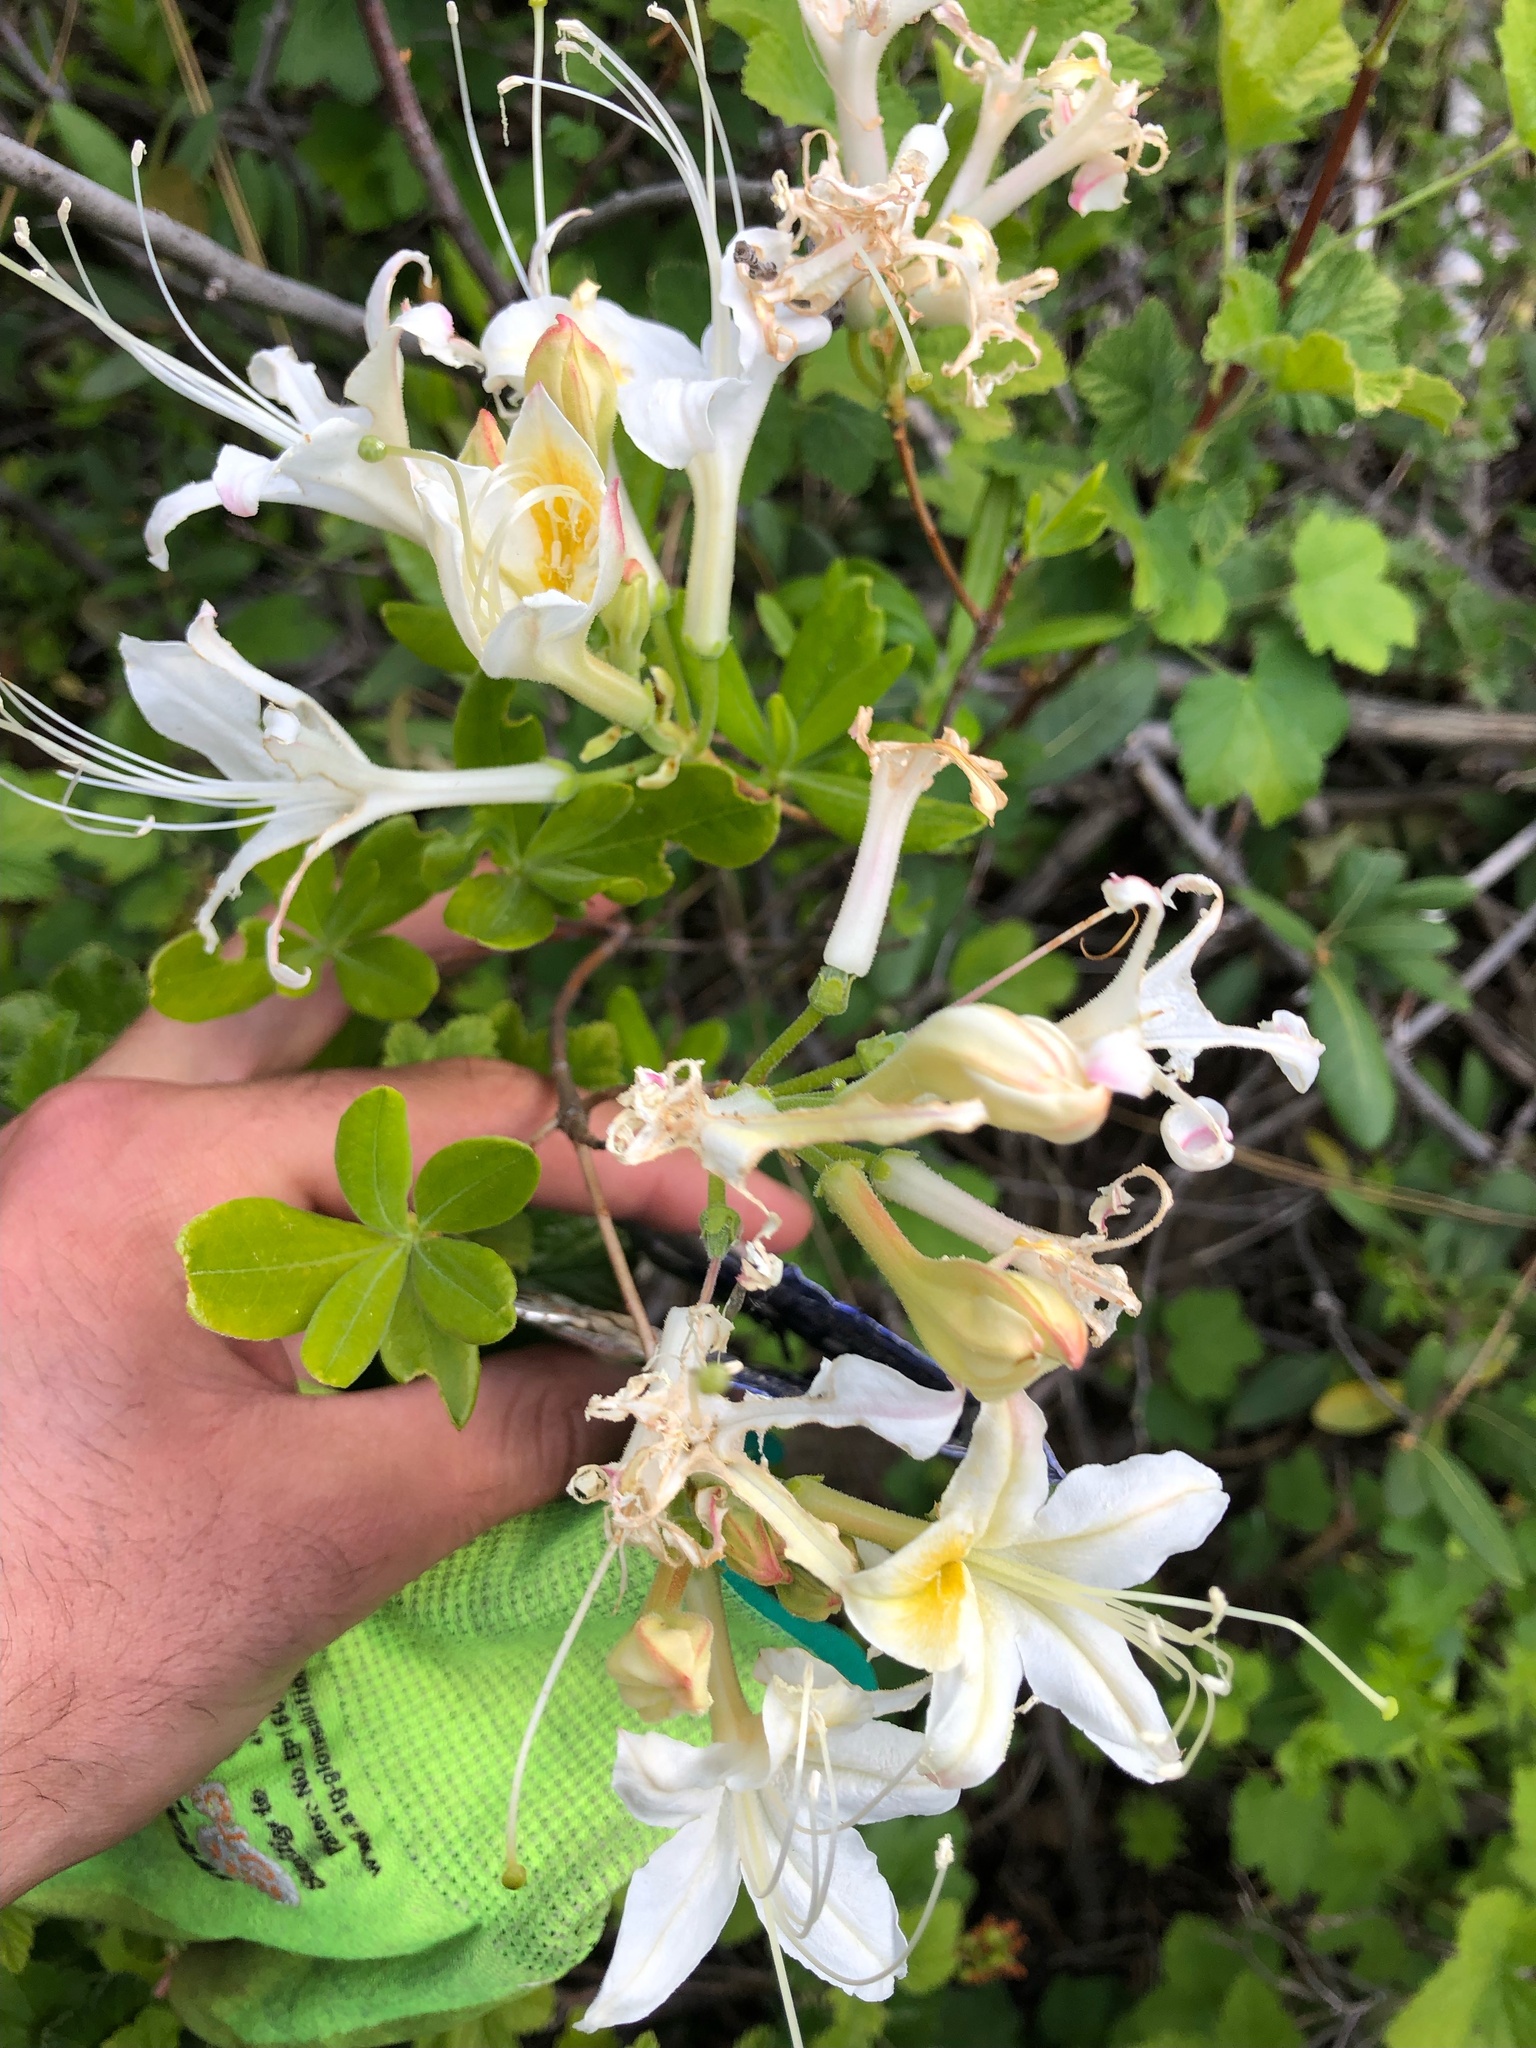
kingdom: Plantae
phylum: Tracheophyta
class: Magnoliopsida
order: Ericales
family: Ericaceae
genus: Rhododendron
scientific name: Rhododendron occidentale
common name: Western azalea
